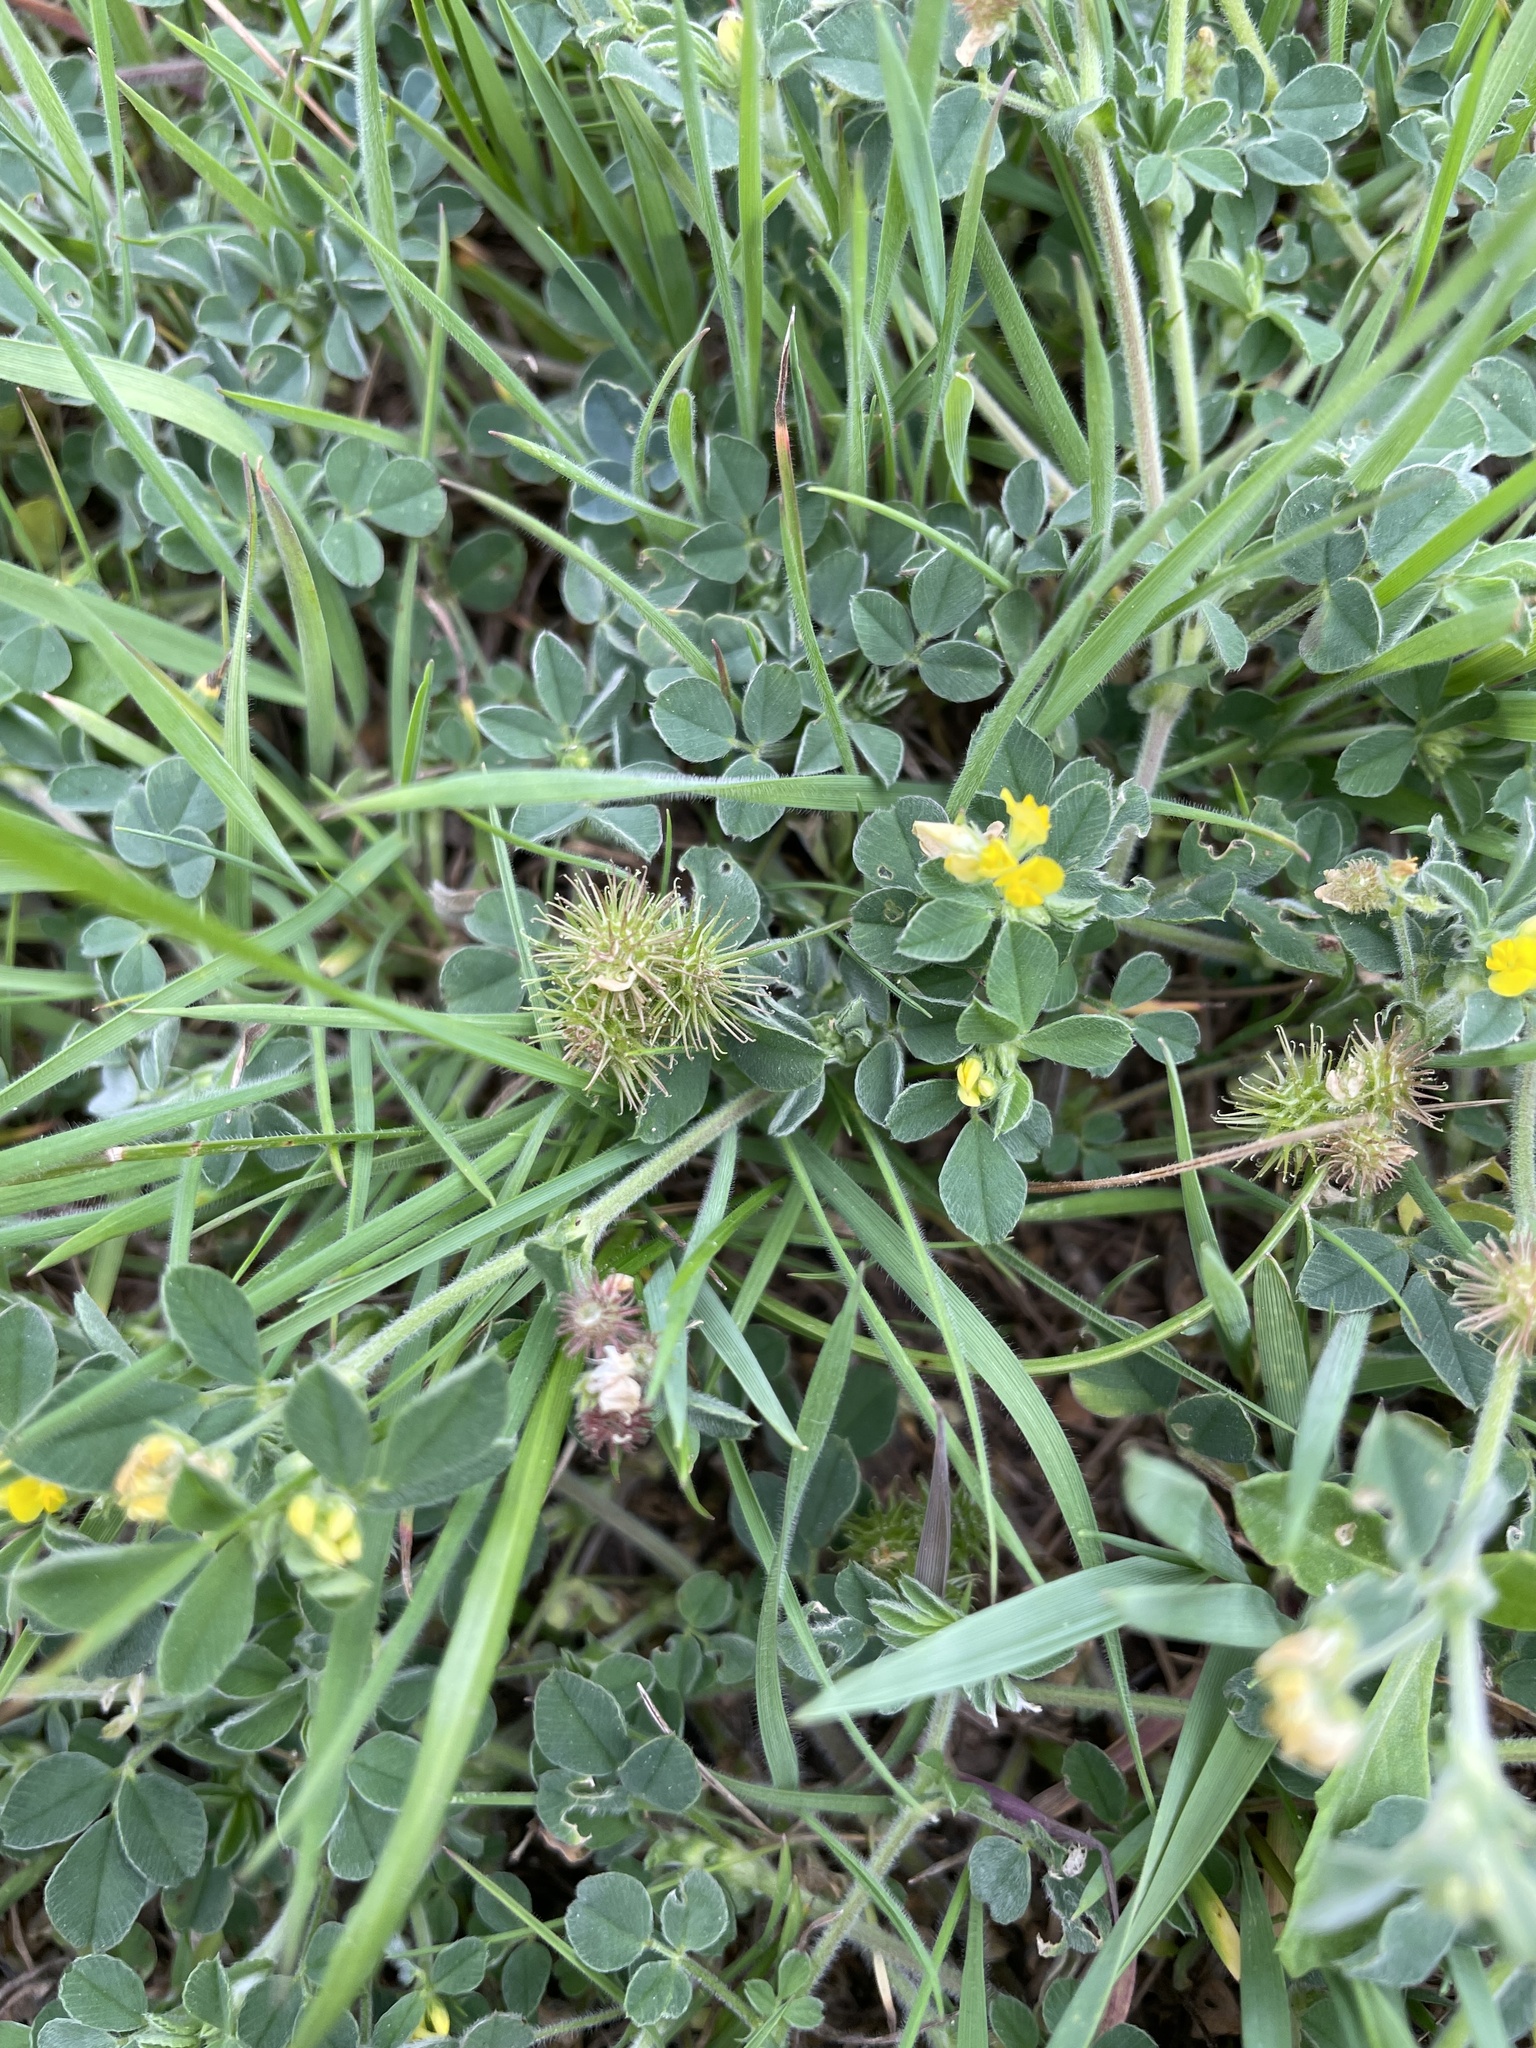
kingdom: Plantae
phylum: Tracheophyta
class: Magnoliopsida
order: Fabales
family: Fabaceae
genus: Medicago
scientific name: Medicago minima
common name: Little bur-clover
